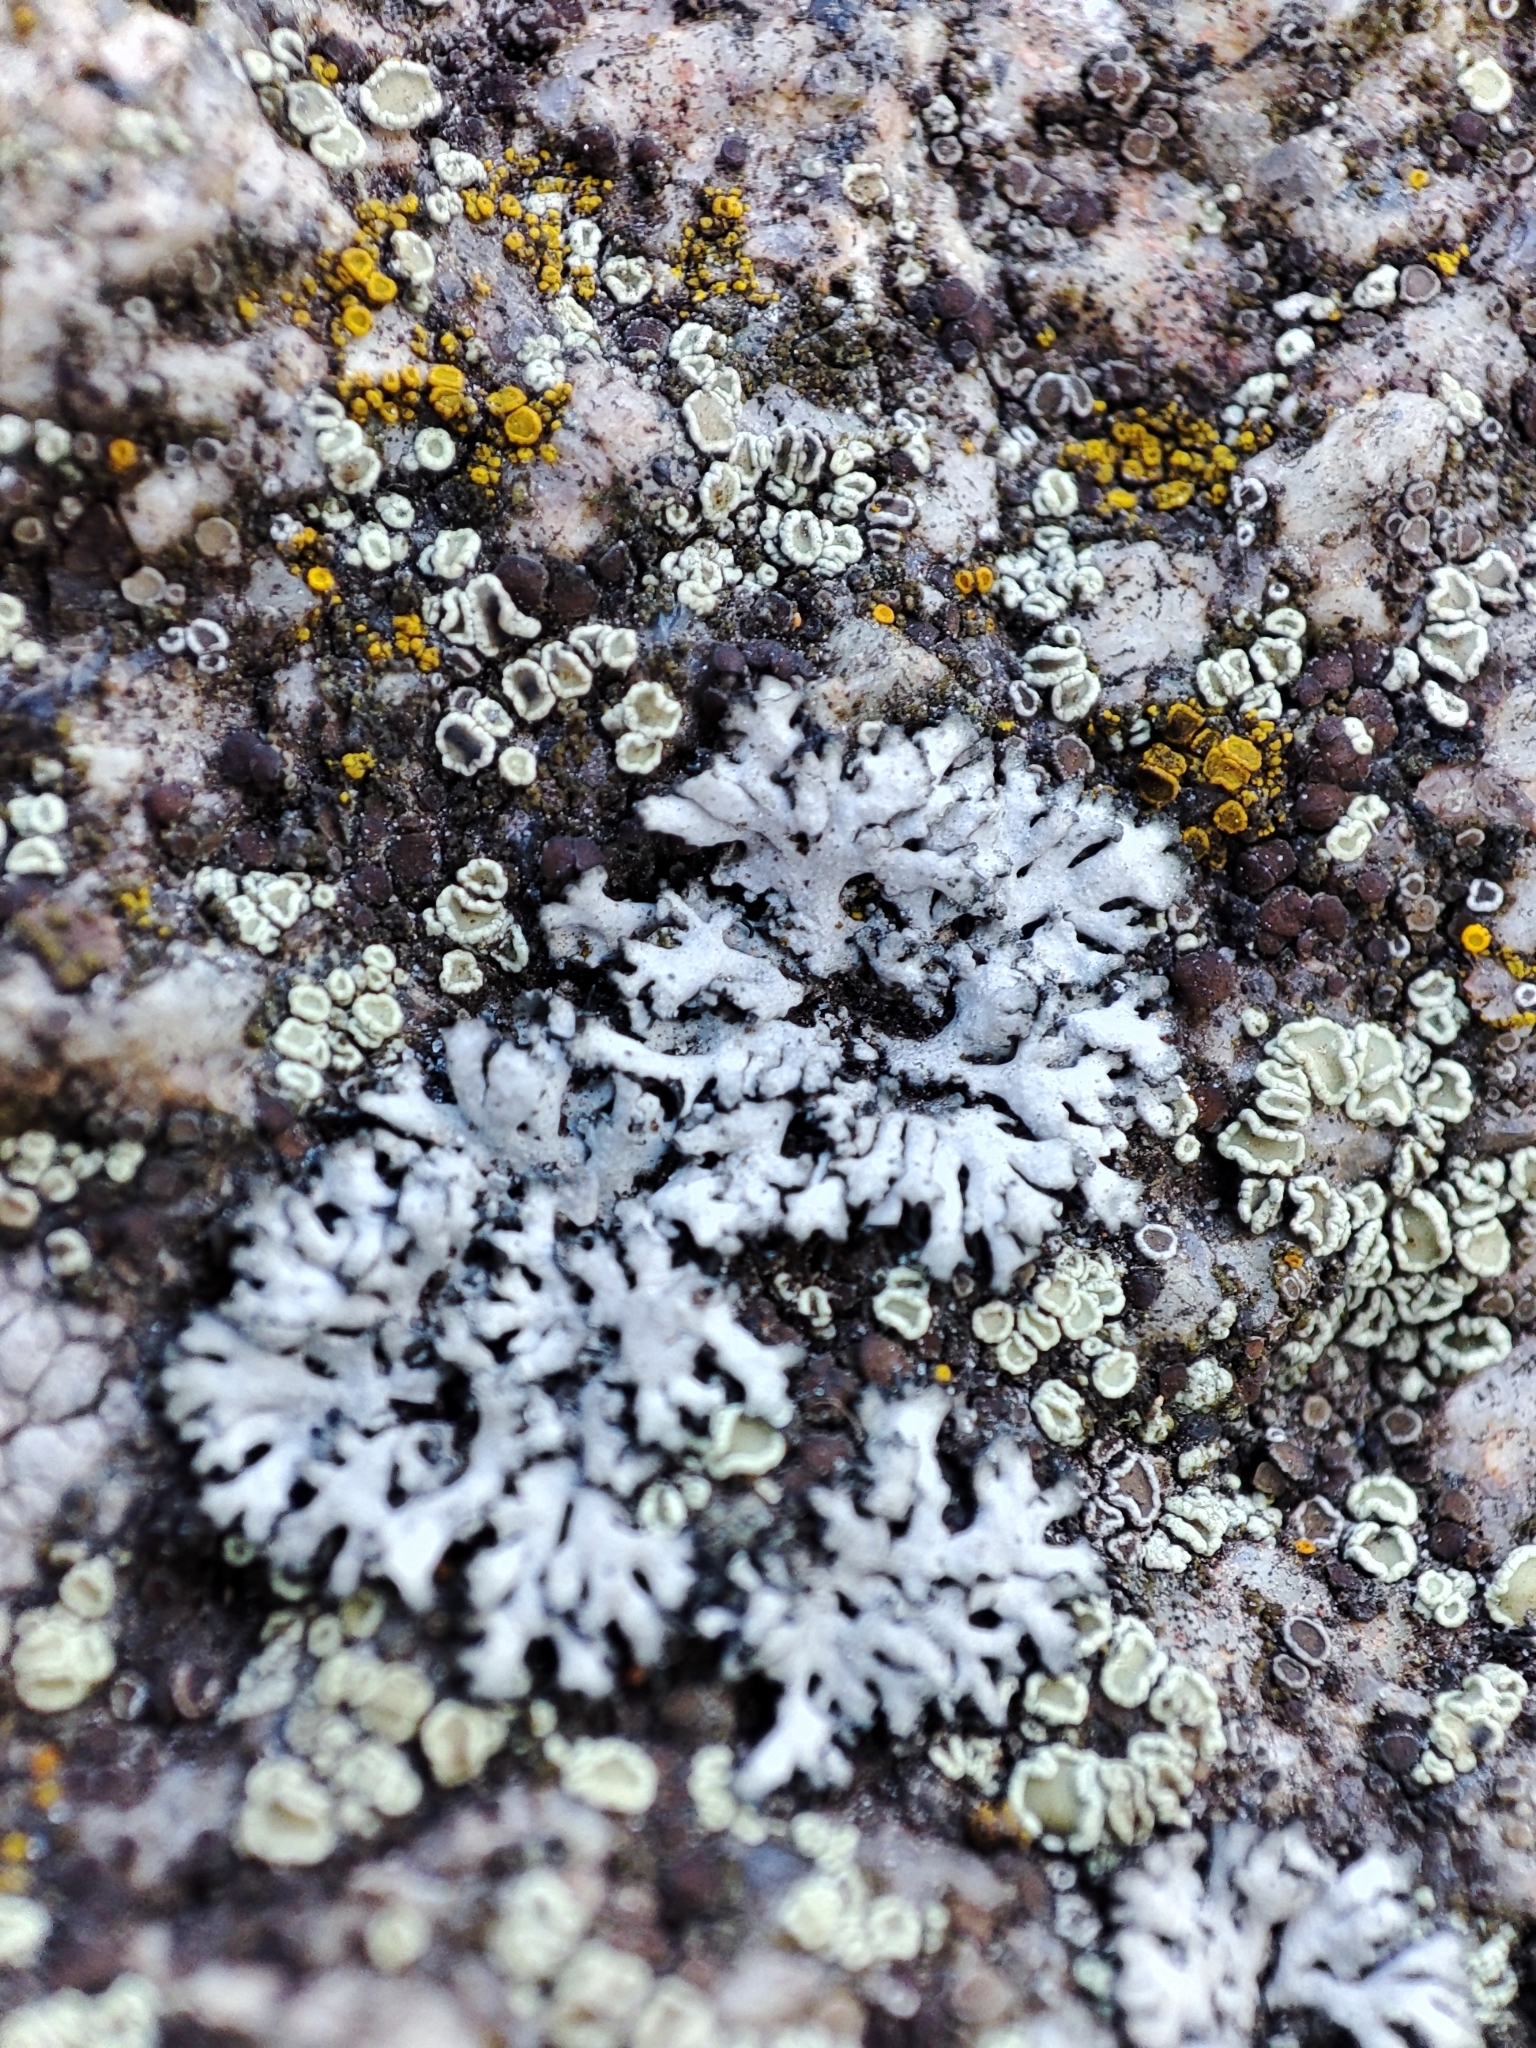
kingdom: Fungi
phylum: Ascomycota
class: Lecanoromycetes
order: Caliciales
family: Physciaceae
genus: Phaeophyscia
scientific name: Phaeophyscia orbicularis
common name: Mealy shadow lichen
